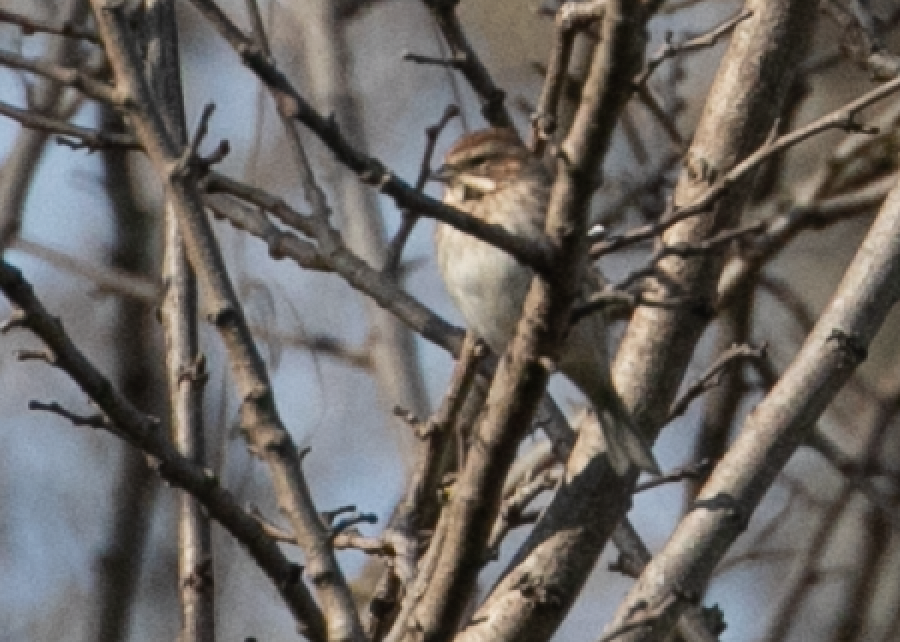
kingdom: Animalia
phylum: Chordata
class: Aves
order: Passeriformes
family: Emberizidae
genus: Emberiza
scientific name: Emberiza schoeniclus
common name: Reed bunting
